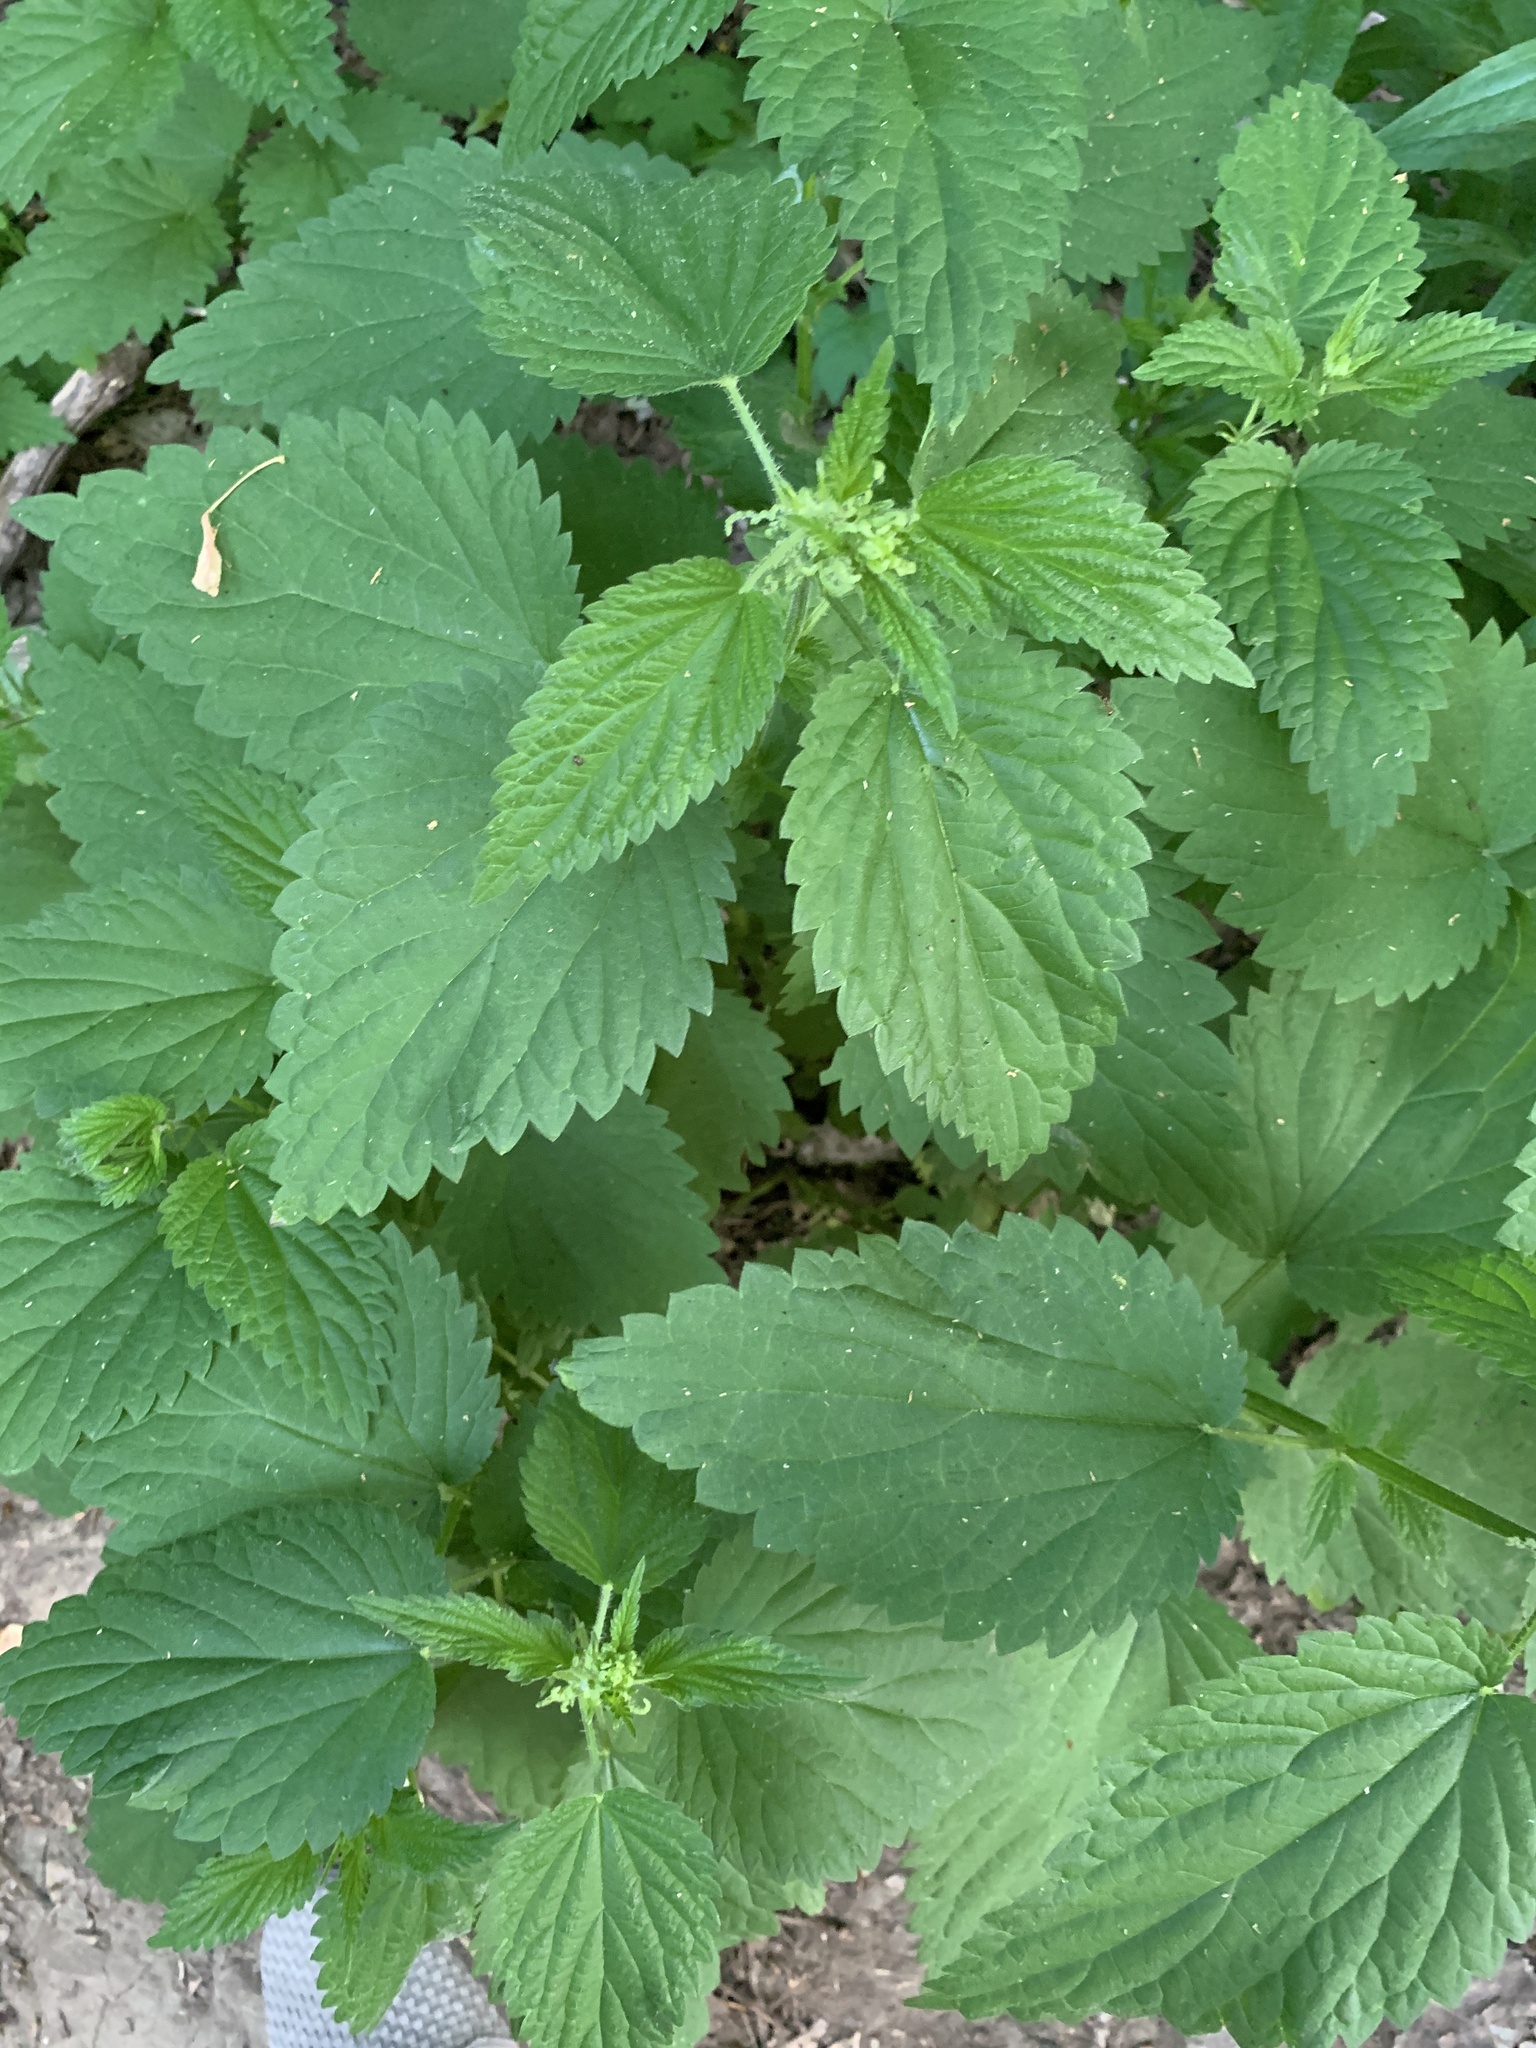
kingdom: Plantae
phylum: Tracheophyta
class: Magnoliopsida
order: Rosales
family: Urticaceae
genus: Urtica
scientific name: Urtica dioica
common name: Common nettle
